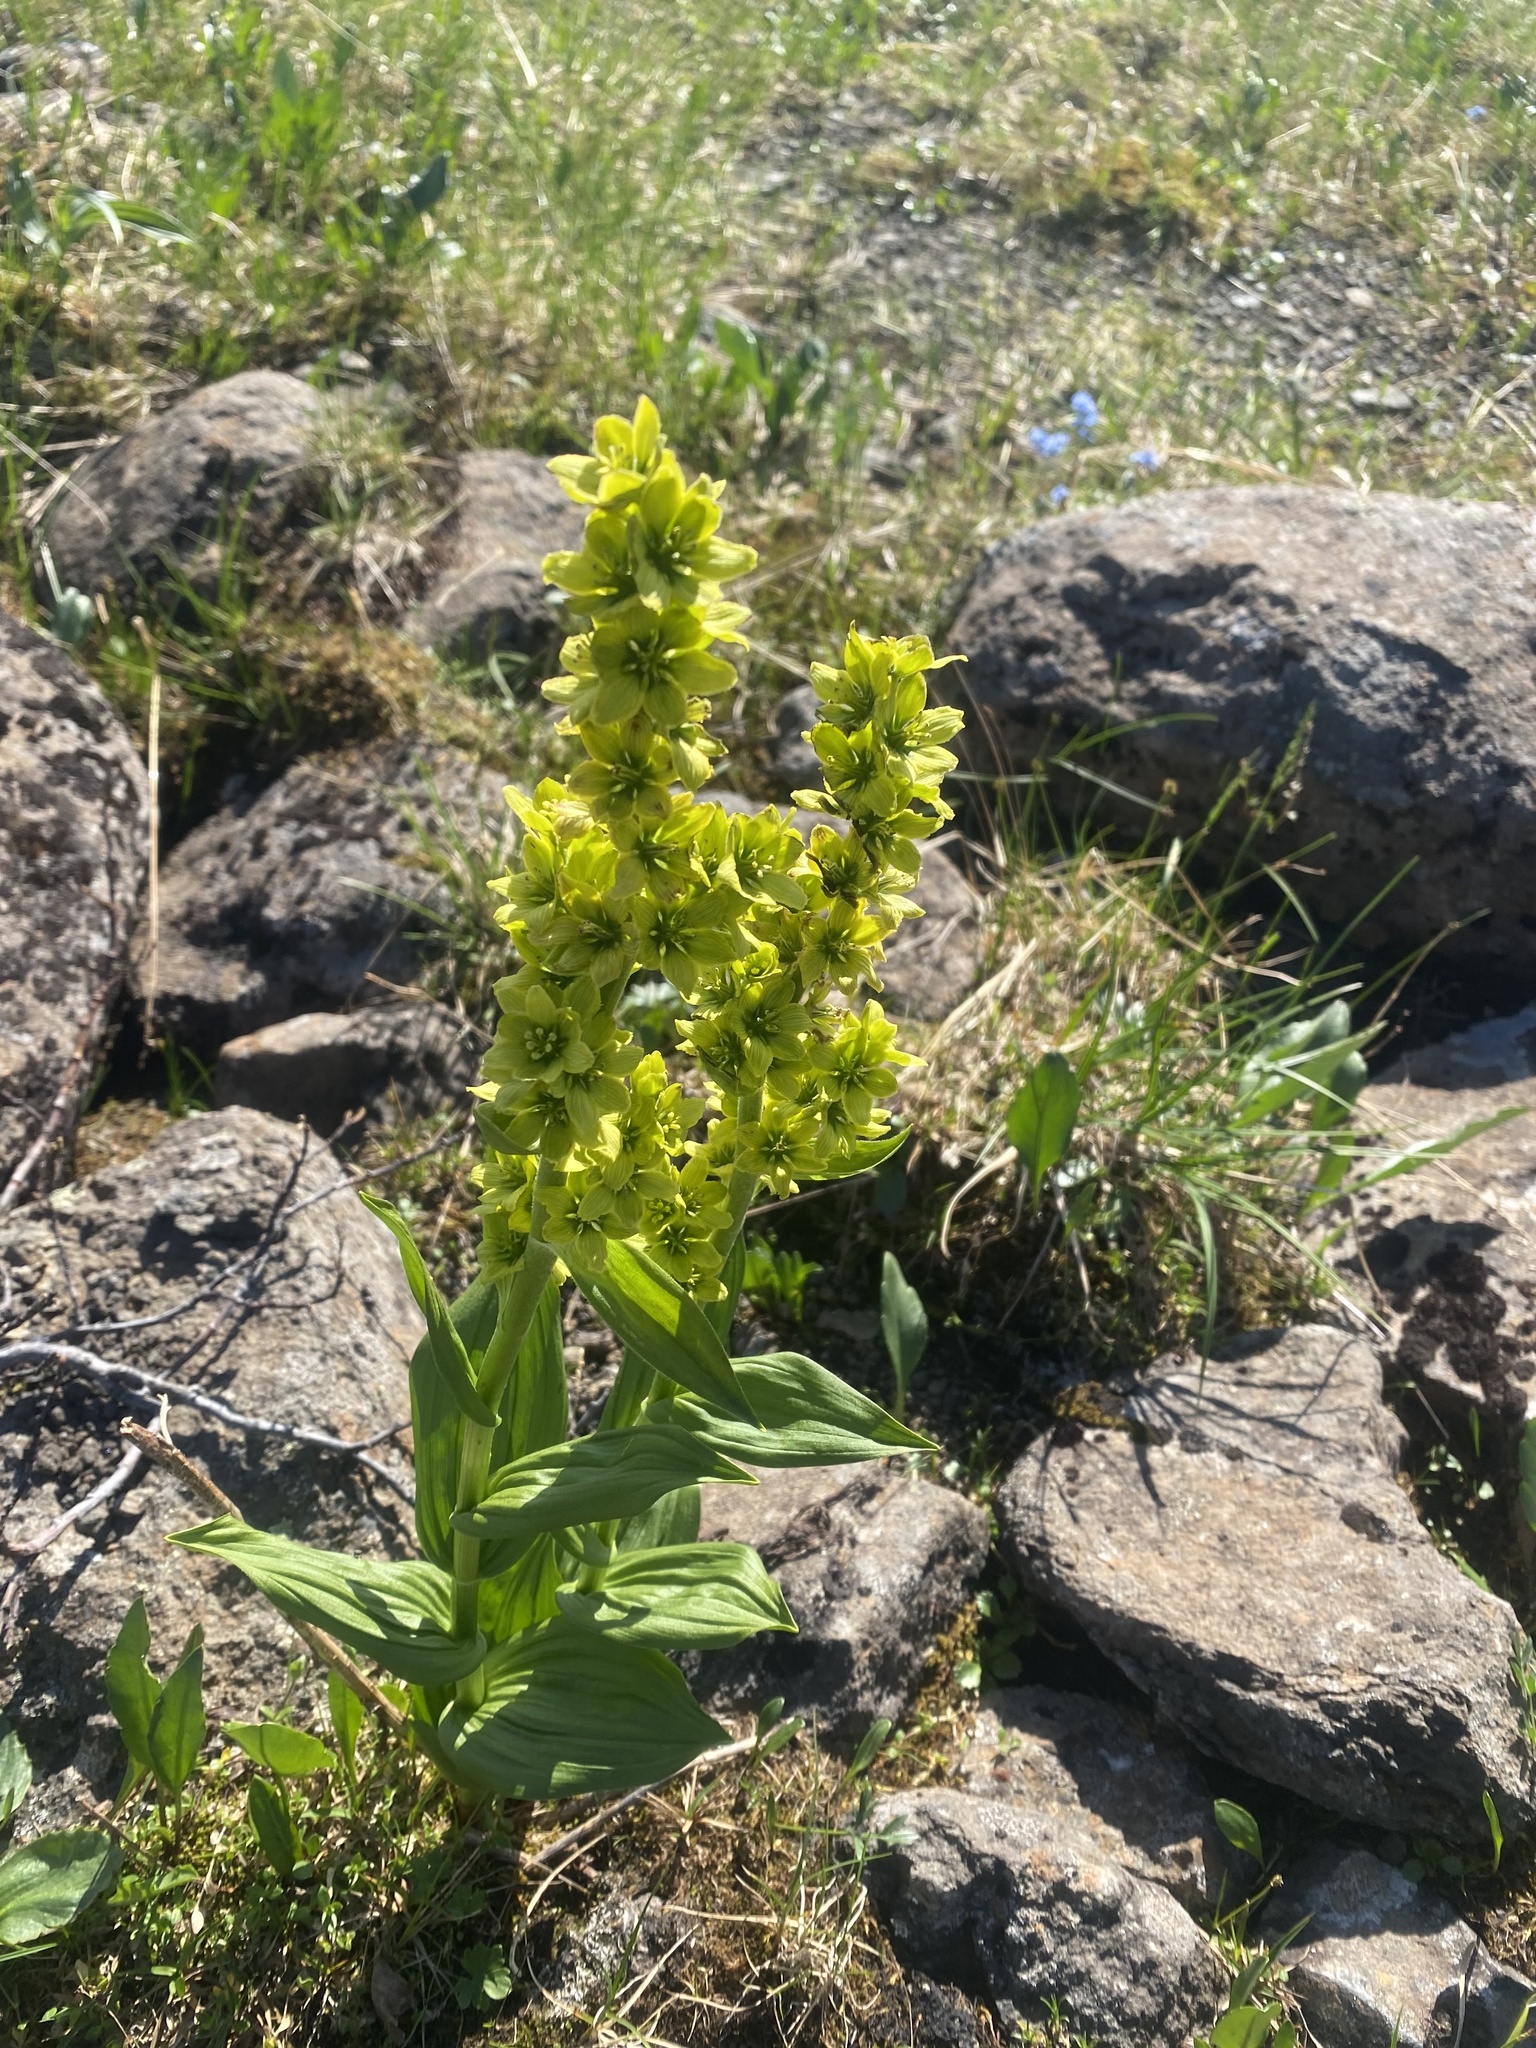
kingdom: Plantae
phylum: Tracheophyta
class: Liliopsida
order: Liliales
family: Melanthiaceae
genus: Veratrum
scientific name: Veratrum lobelianum
